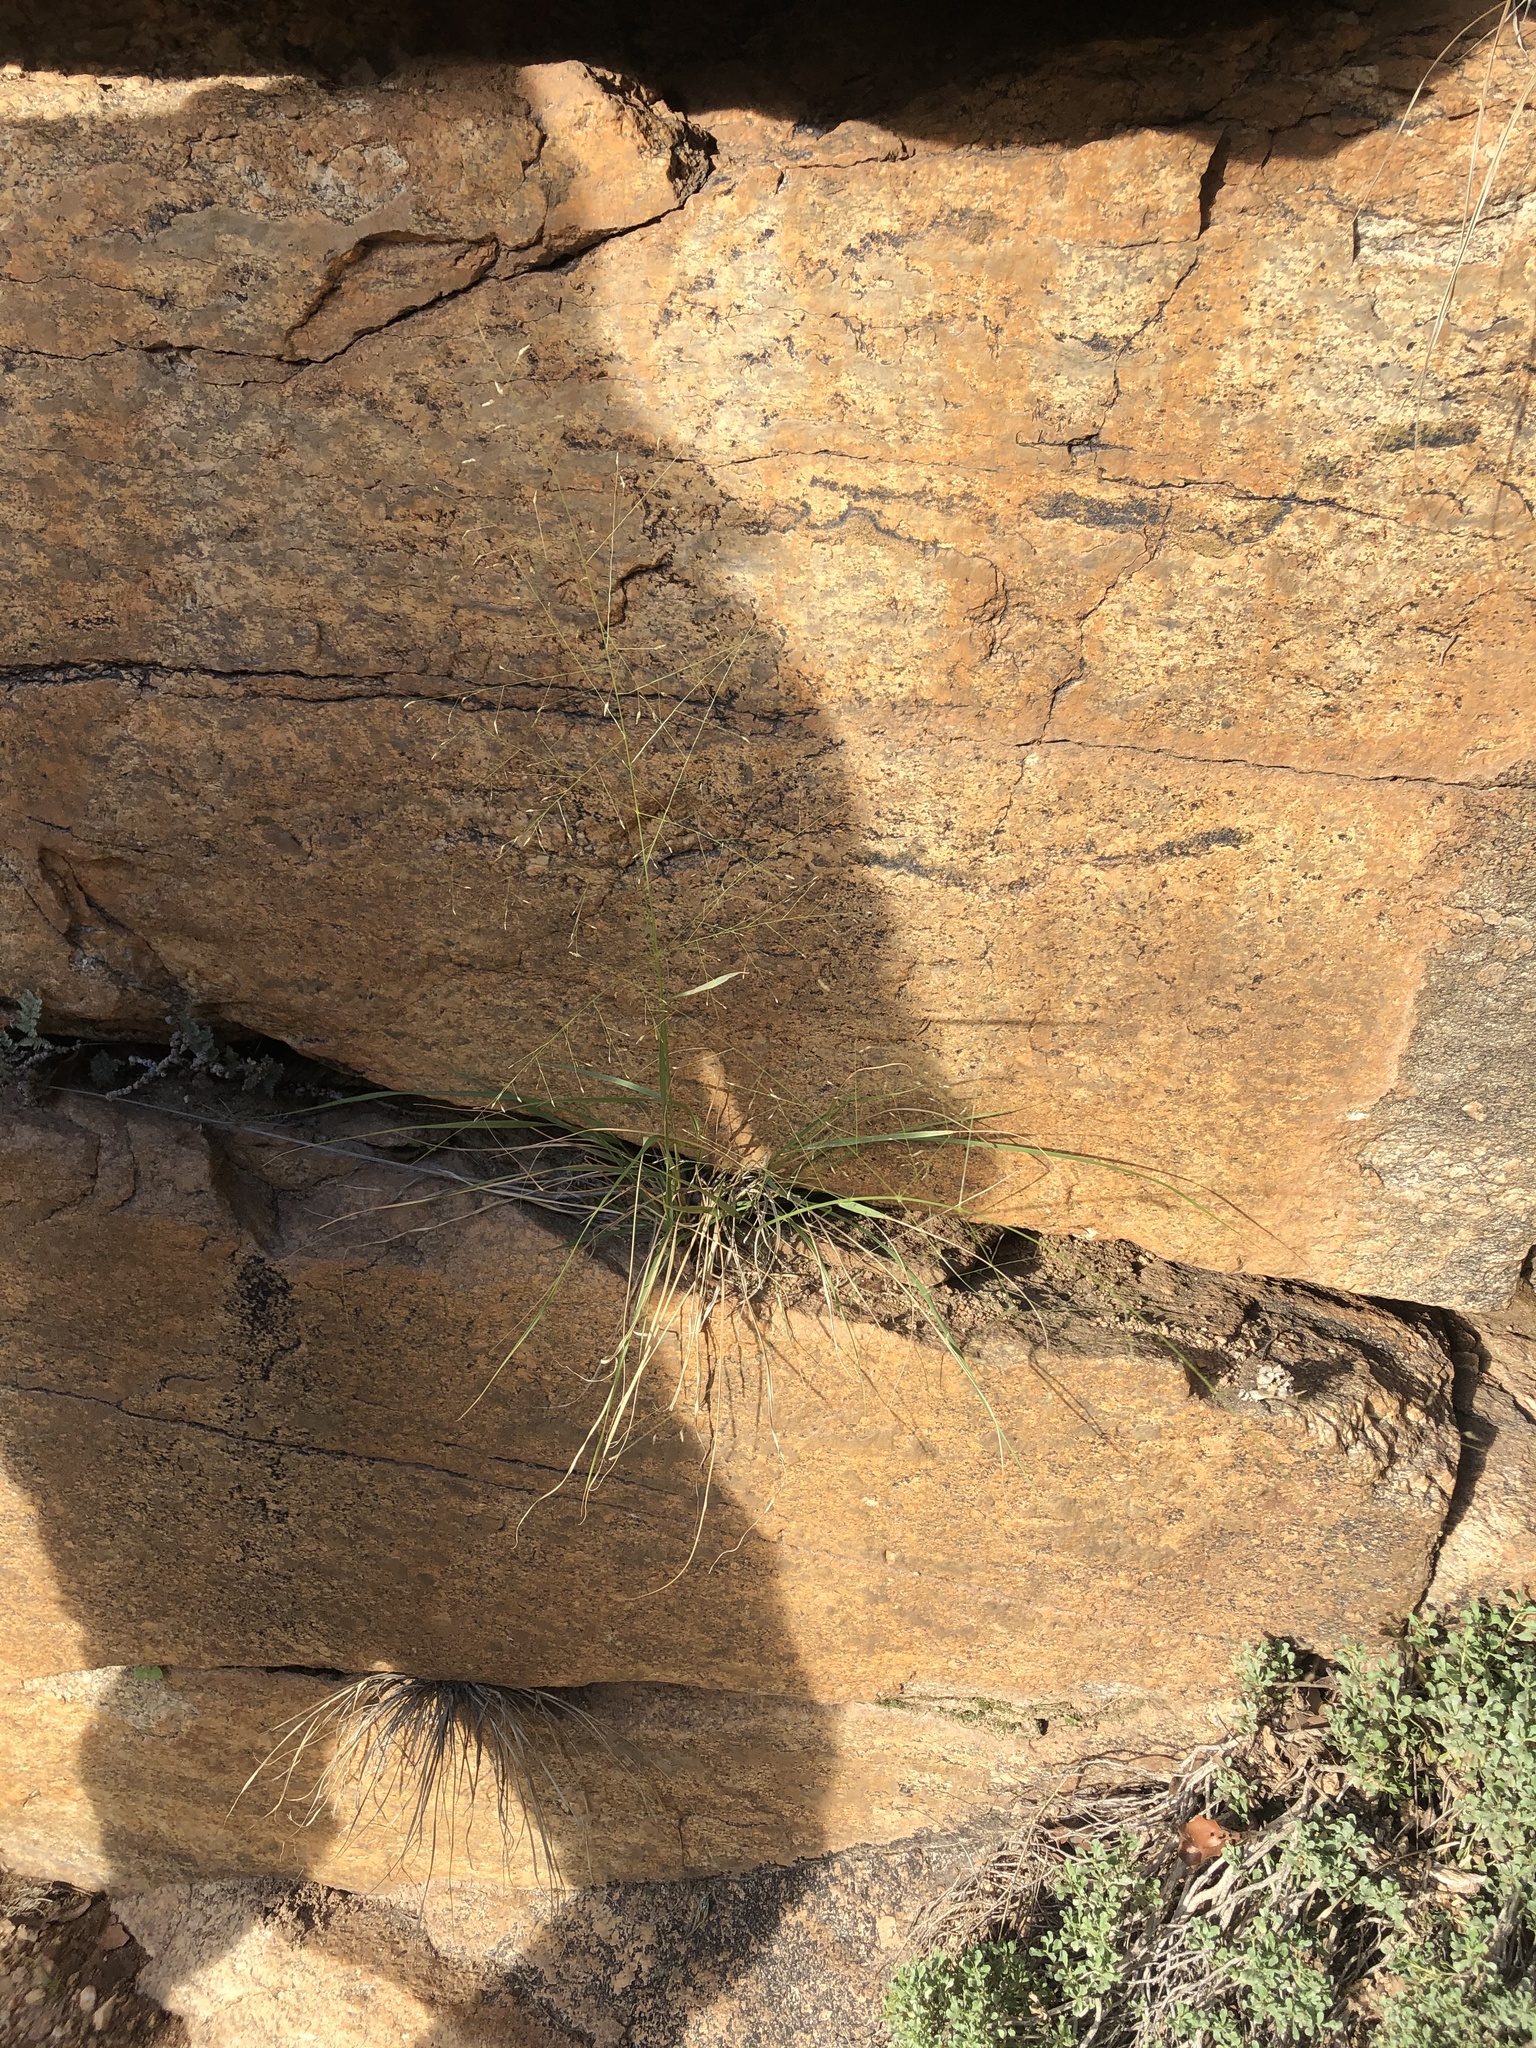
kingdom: Plantae
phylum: Tracheophyta
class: Liliopsida
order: Poales
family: Poaceae
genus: Eragrostis
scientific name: Eragrostis intermedia
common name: Plains love grass
